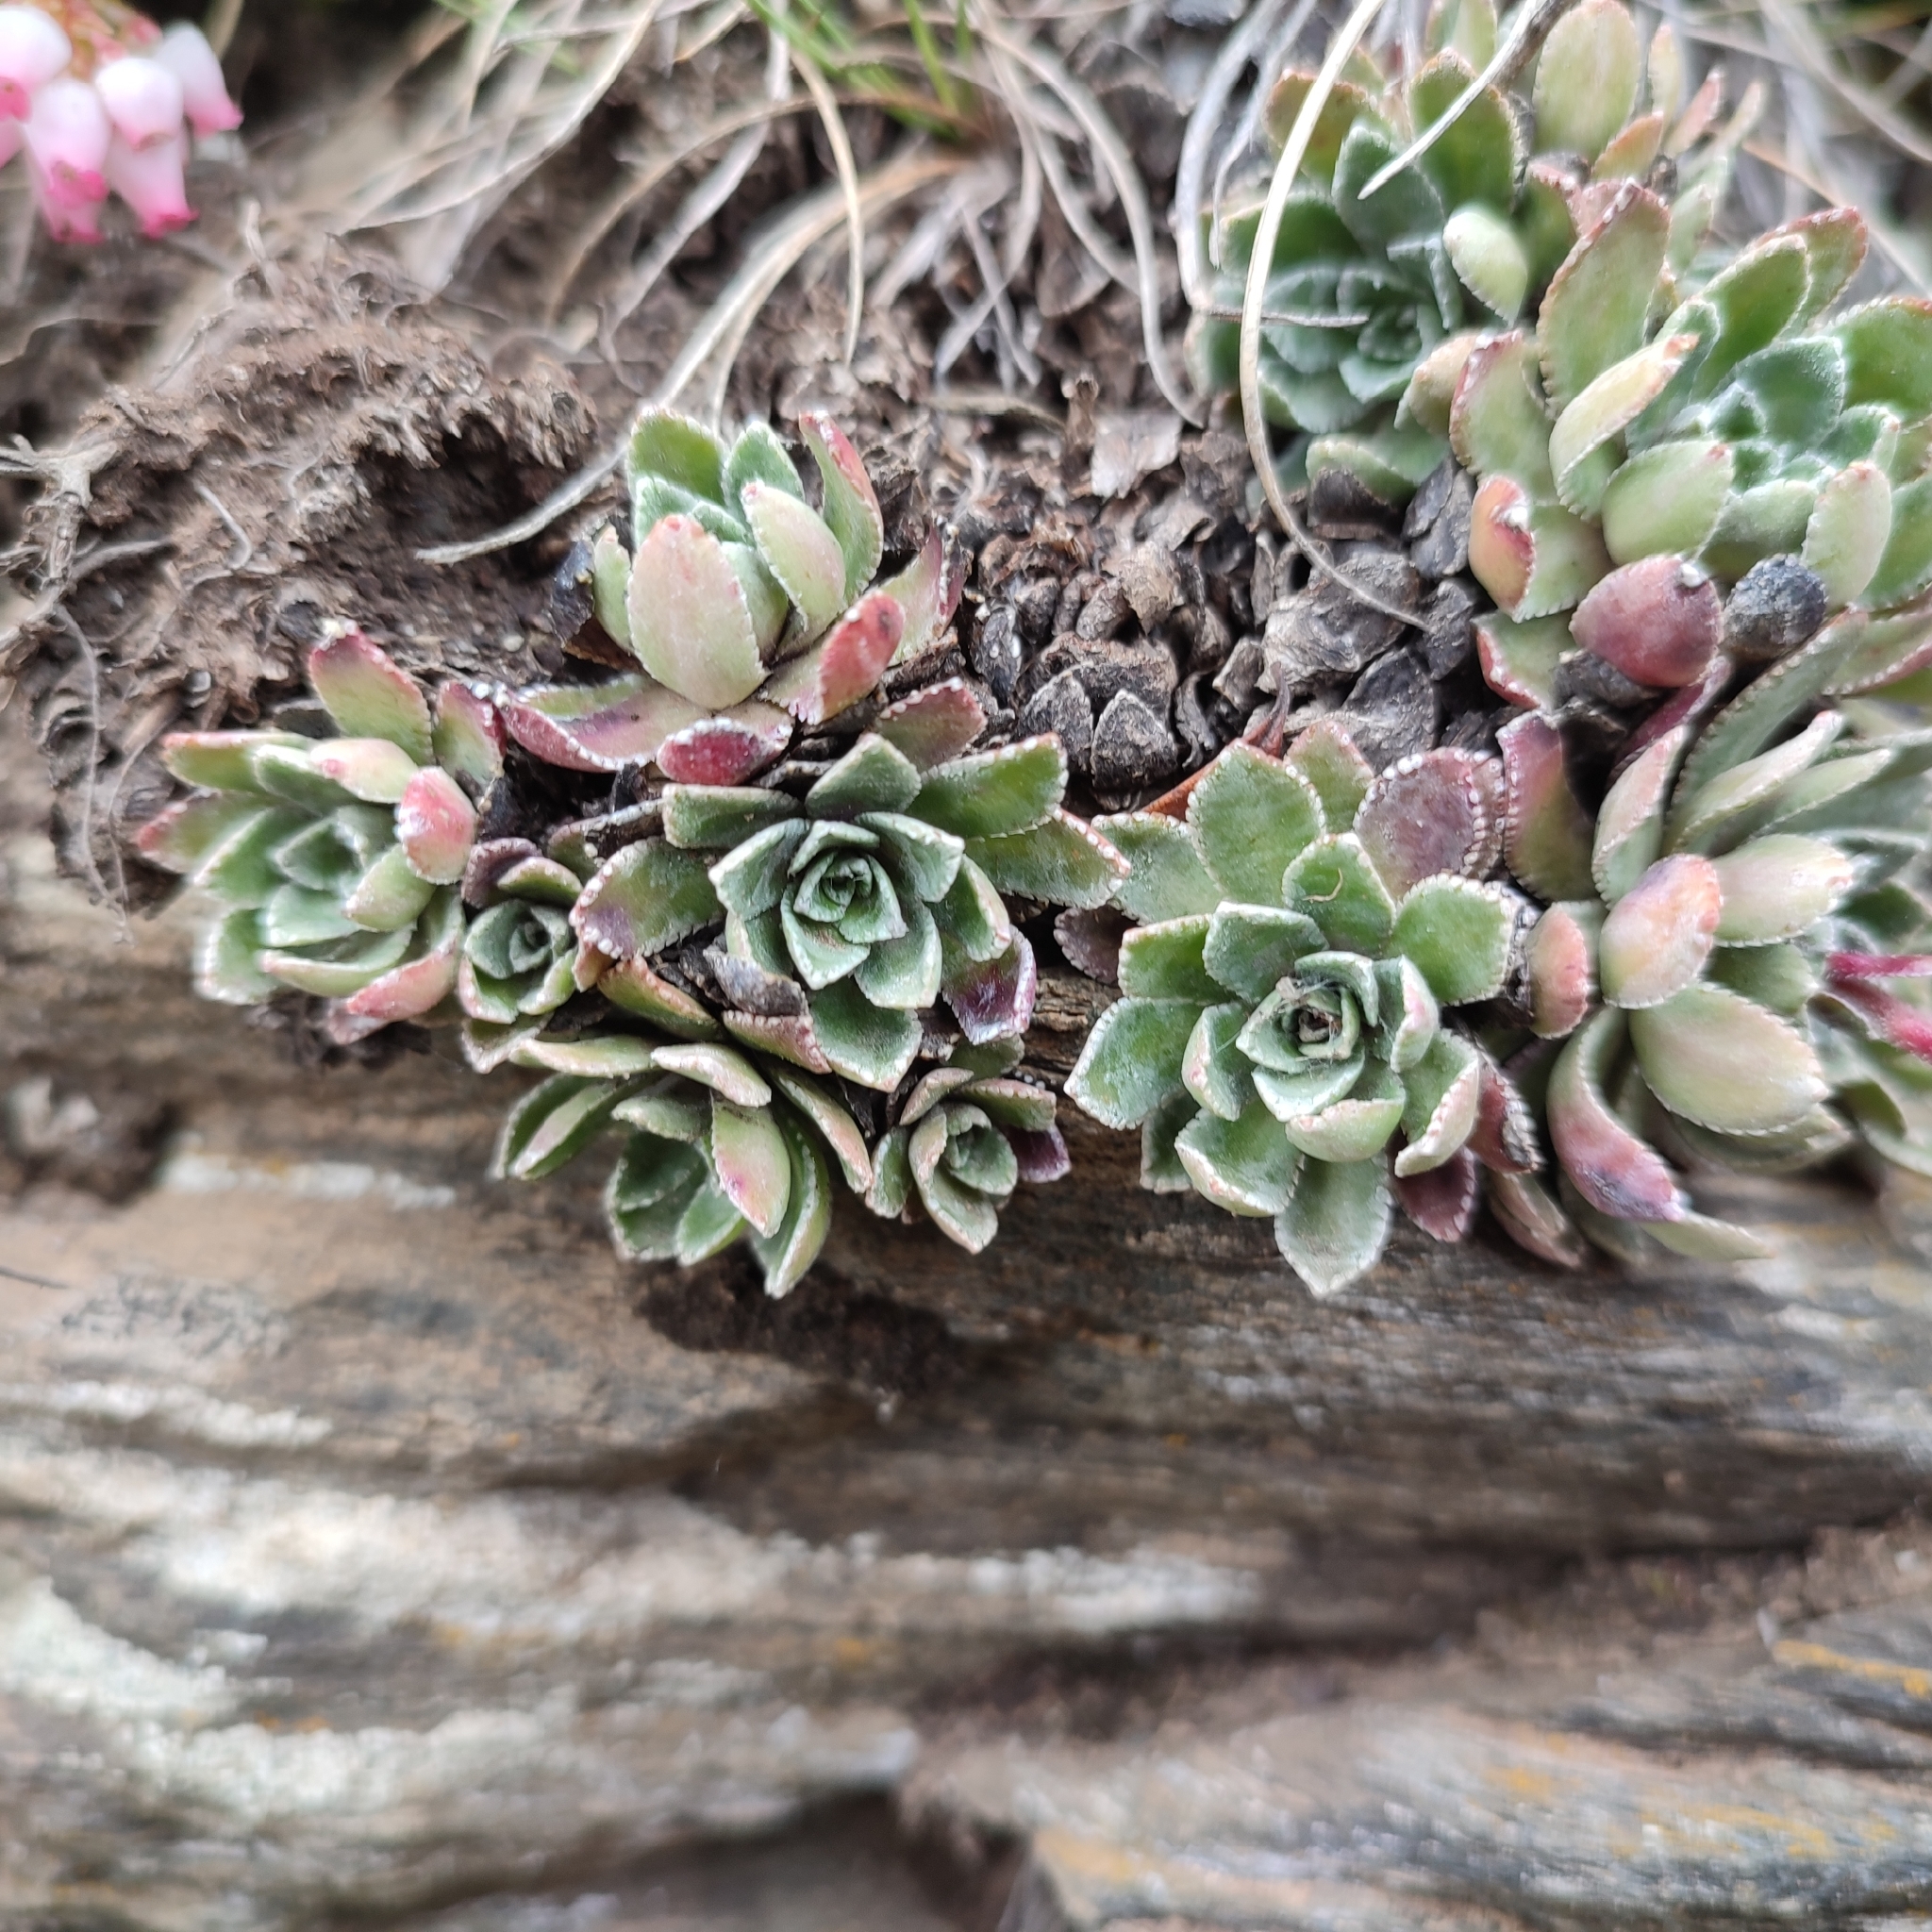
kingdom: Plantae
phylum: Tracheophyta
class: Magnoliopsida
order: Saxifragales
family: Saxifragaceae
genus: Saxifraga
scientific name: Saxifraga paniculata
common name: Livelong saxifrage
